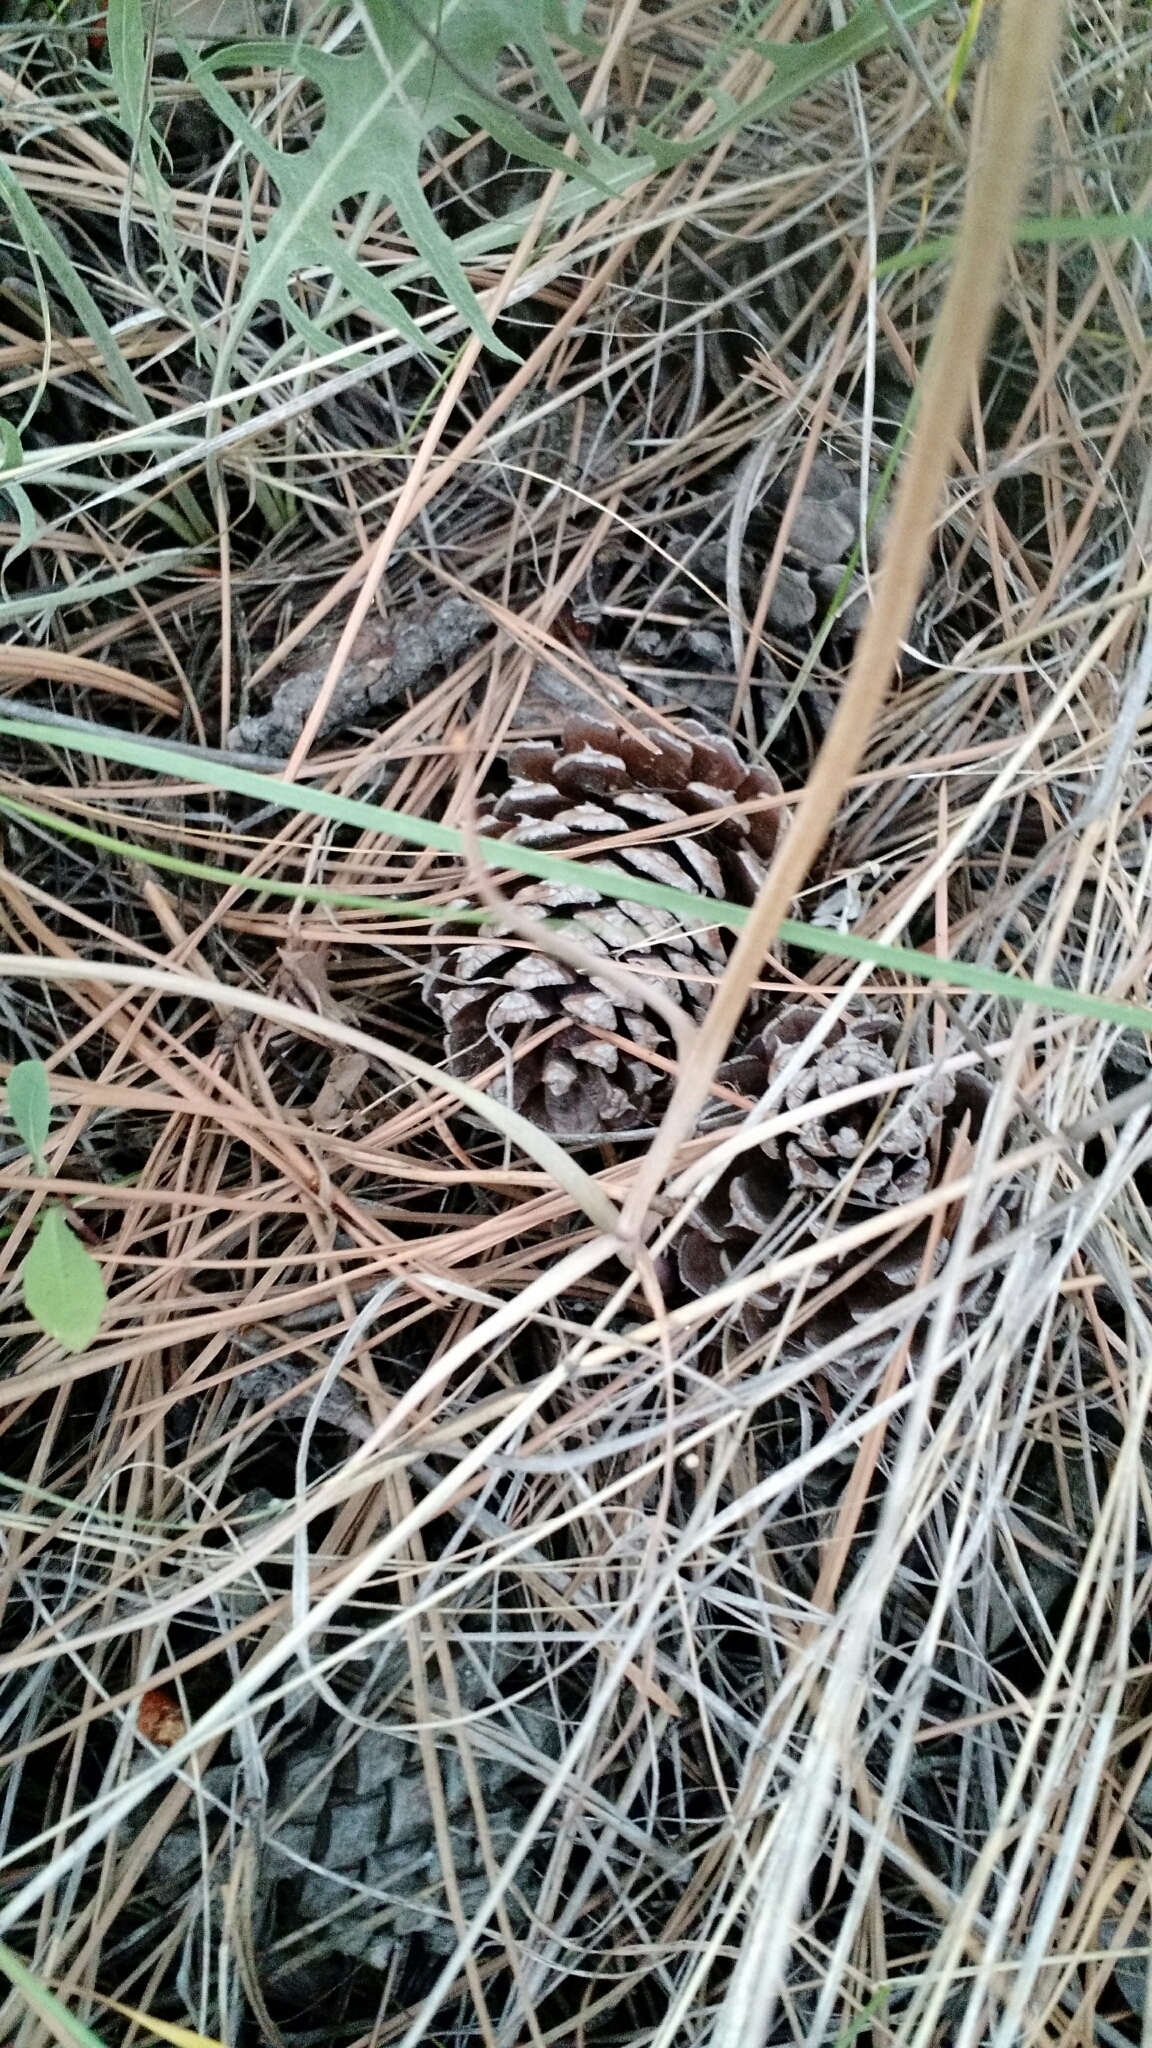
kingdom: Plantae
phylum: Tracheophyta
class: Liliopsida
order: Liliales
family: Liliaceae
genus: Fritillaria
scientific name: Fritillaria pudica
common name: Yellow fritillary
